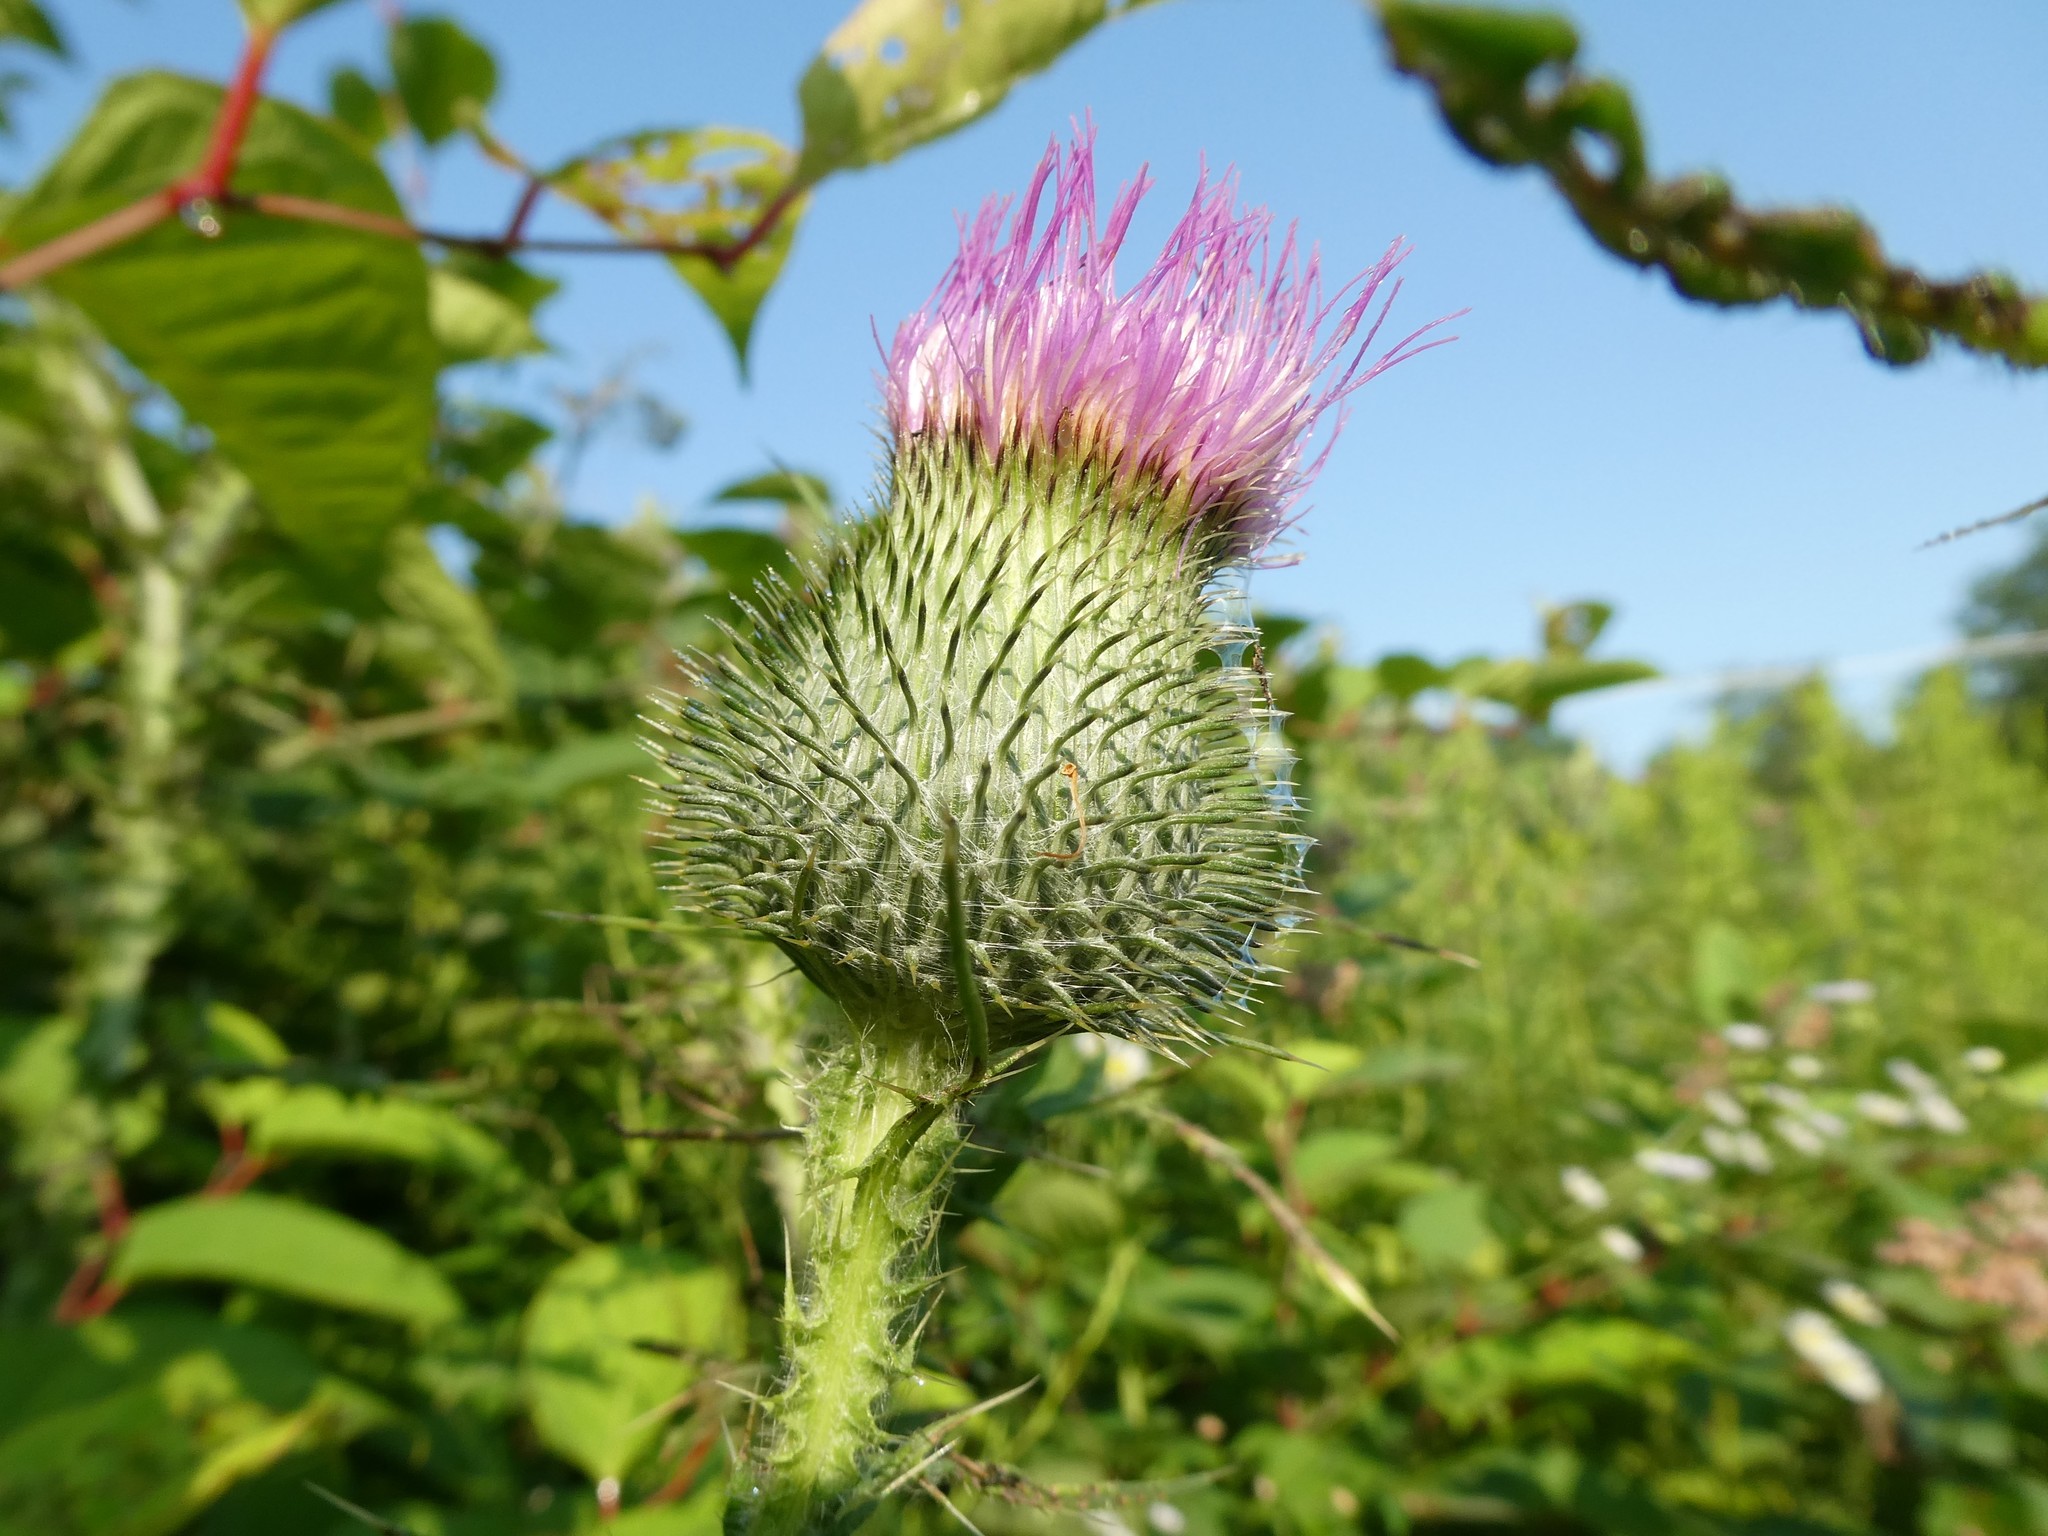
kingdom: Plantae
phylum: Tracheophyta
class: Magnoliopsida
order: Asterales
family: Asteraceae
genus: Cirsium
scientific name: Cirsium vulgare
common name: Bull thistle
